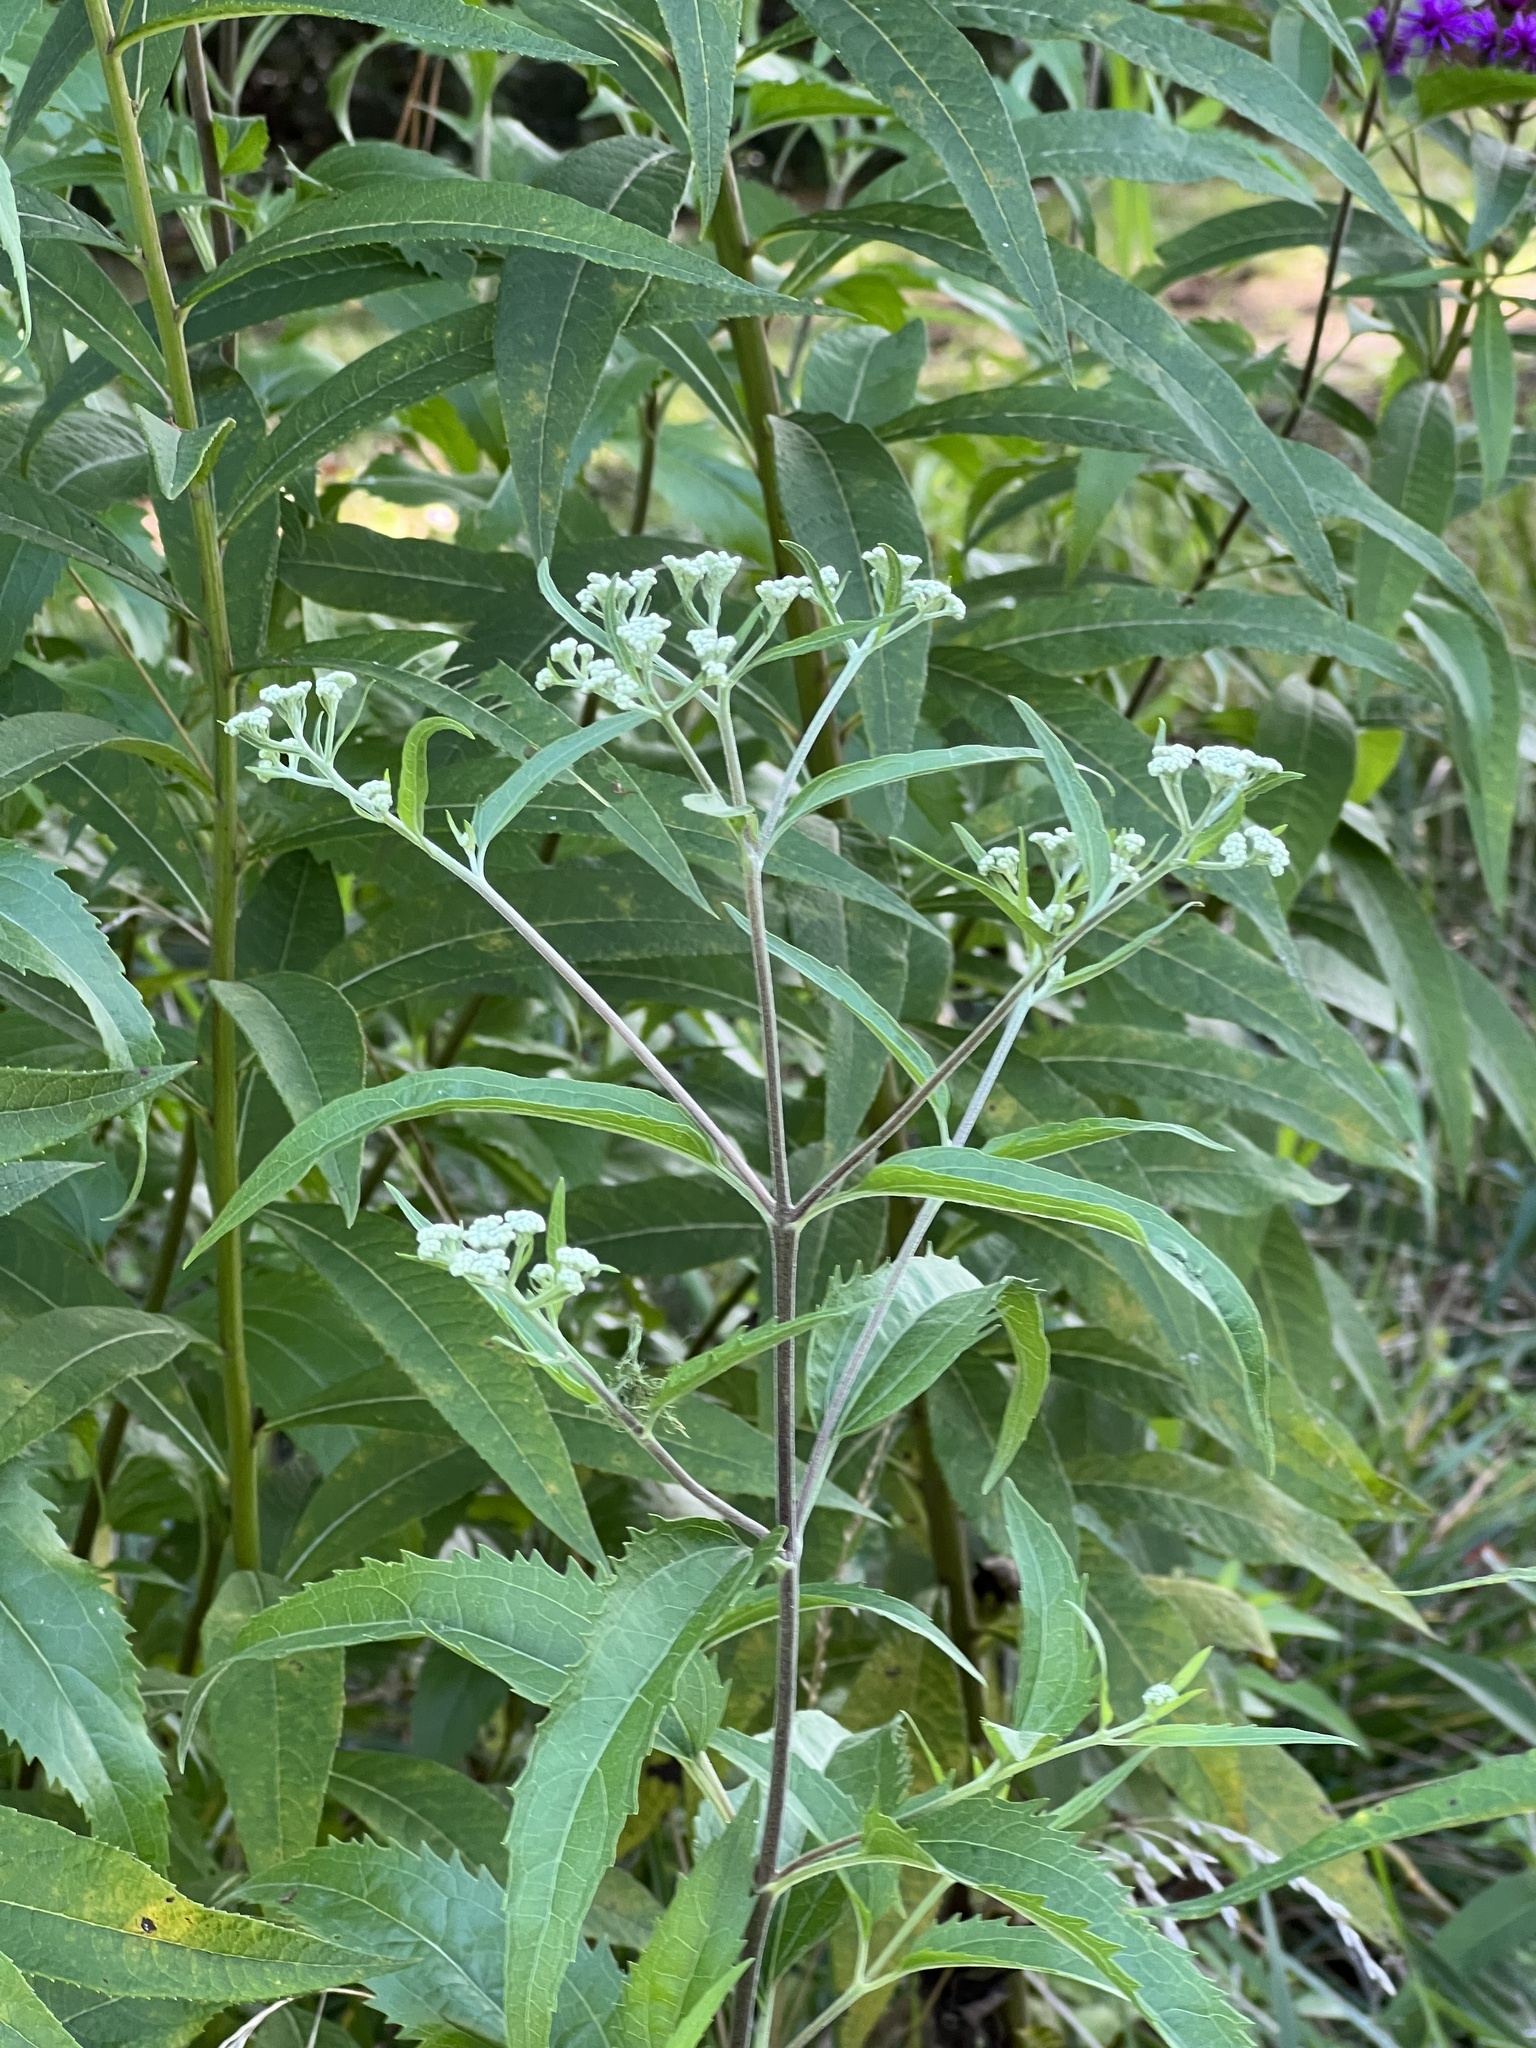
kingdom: Plantae
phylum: Tracheophyta
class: Magnoliopsida
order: Asterales
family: Asteraceae
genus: Eupatorium
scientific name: Eupatorium serotinum
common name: Late boneset
